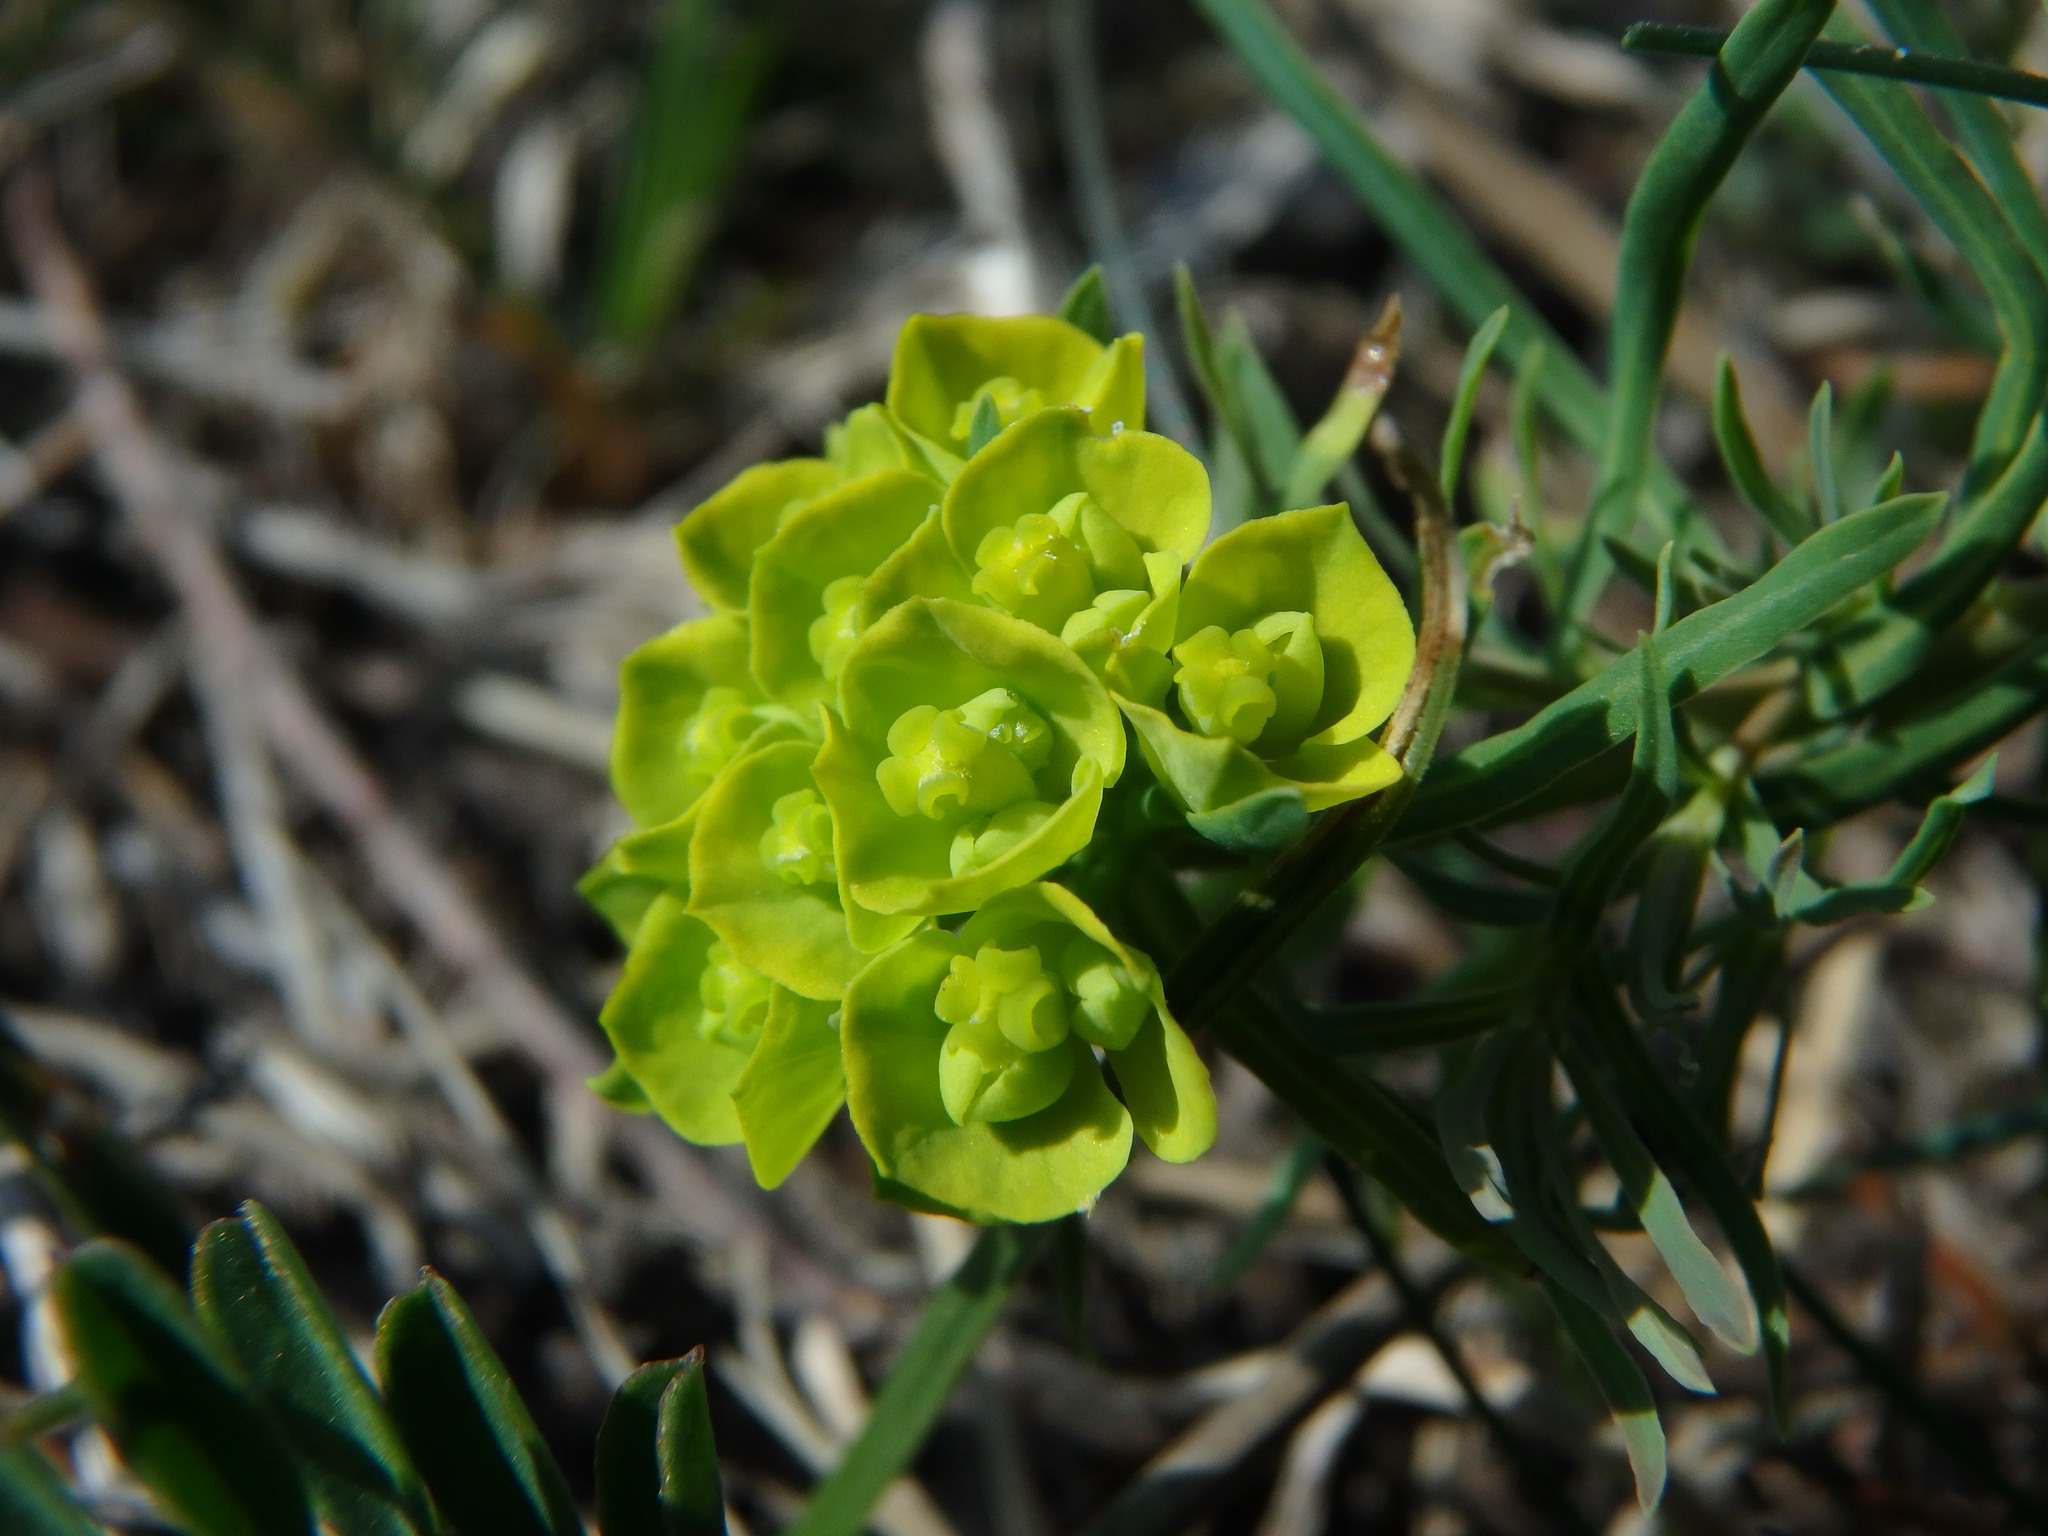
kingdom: Plantae
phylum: Tracheophyta
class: Magnoliopsida
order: Malpighiales
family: Euphorbiaceae
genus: Euphorbia
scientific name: Euphorbia cyparissias
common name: Cypress spurge
